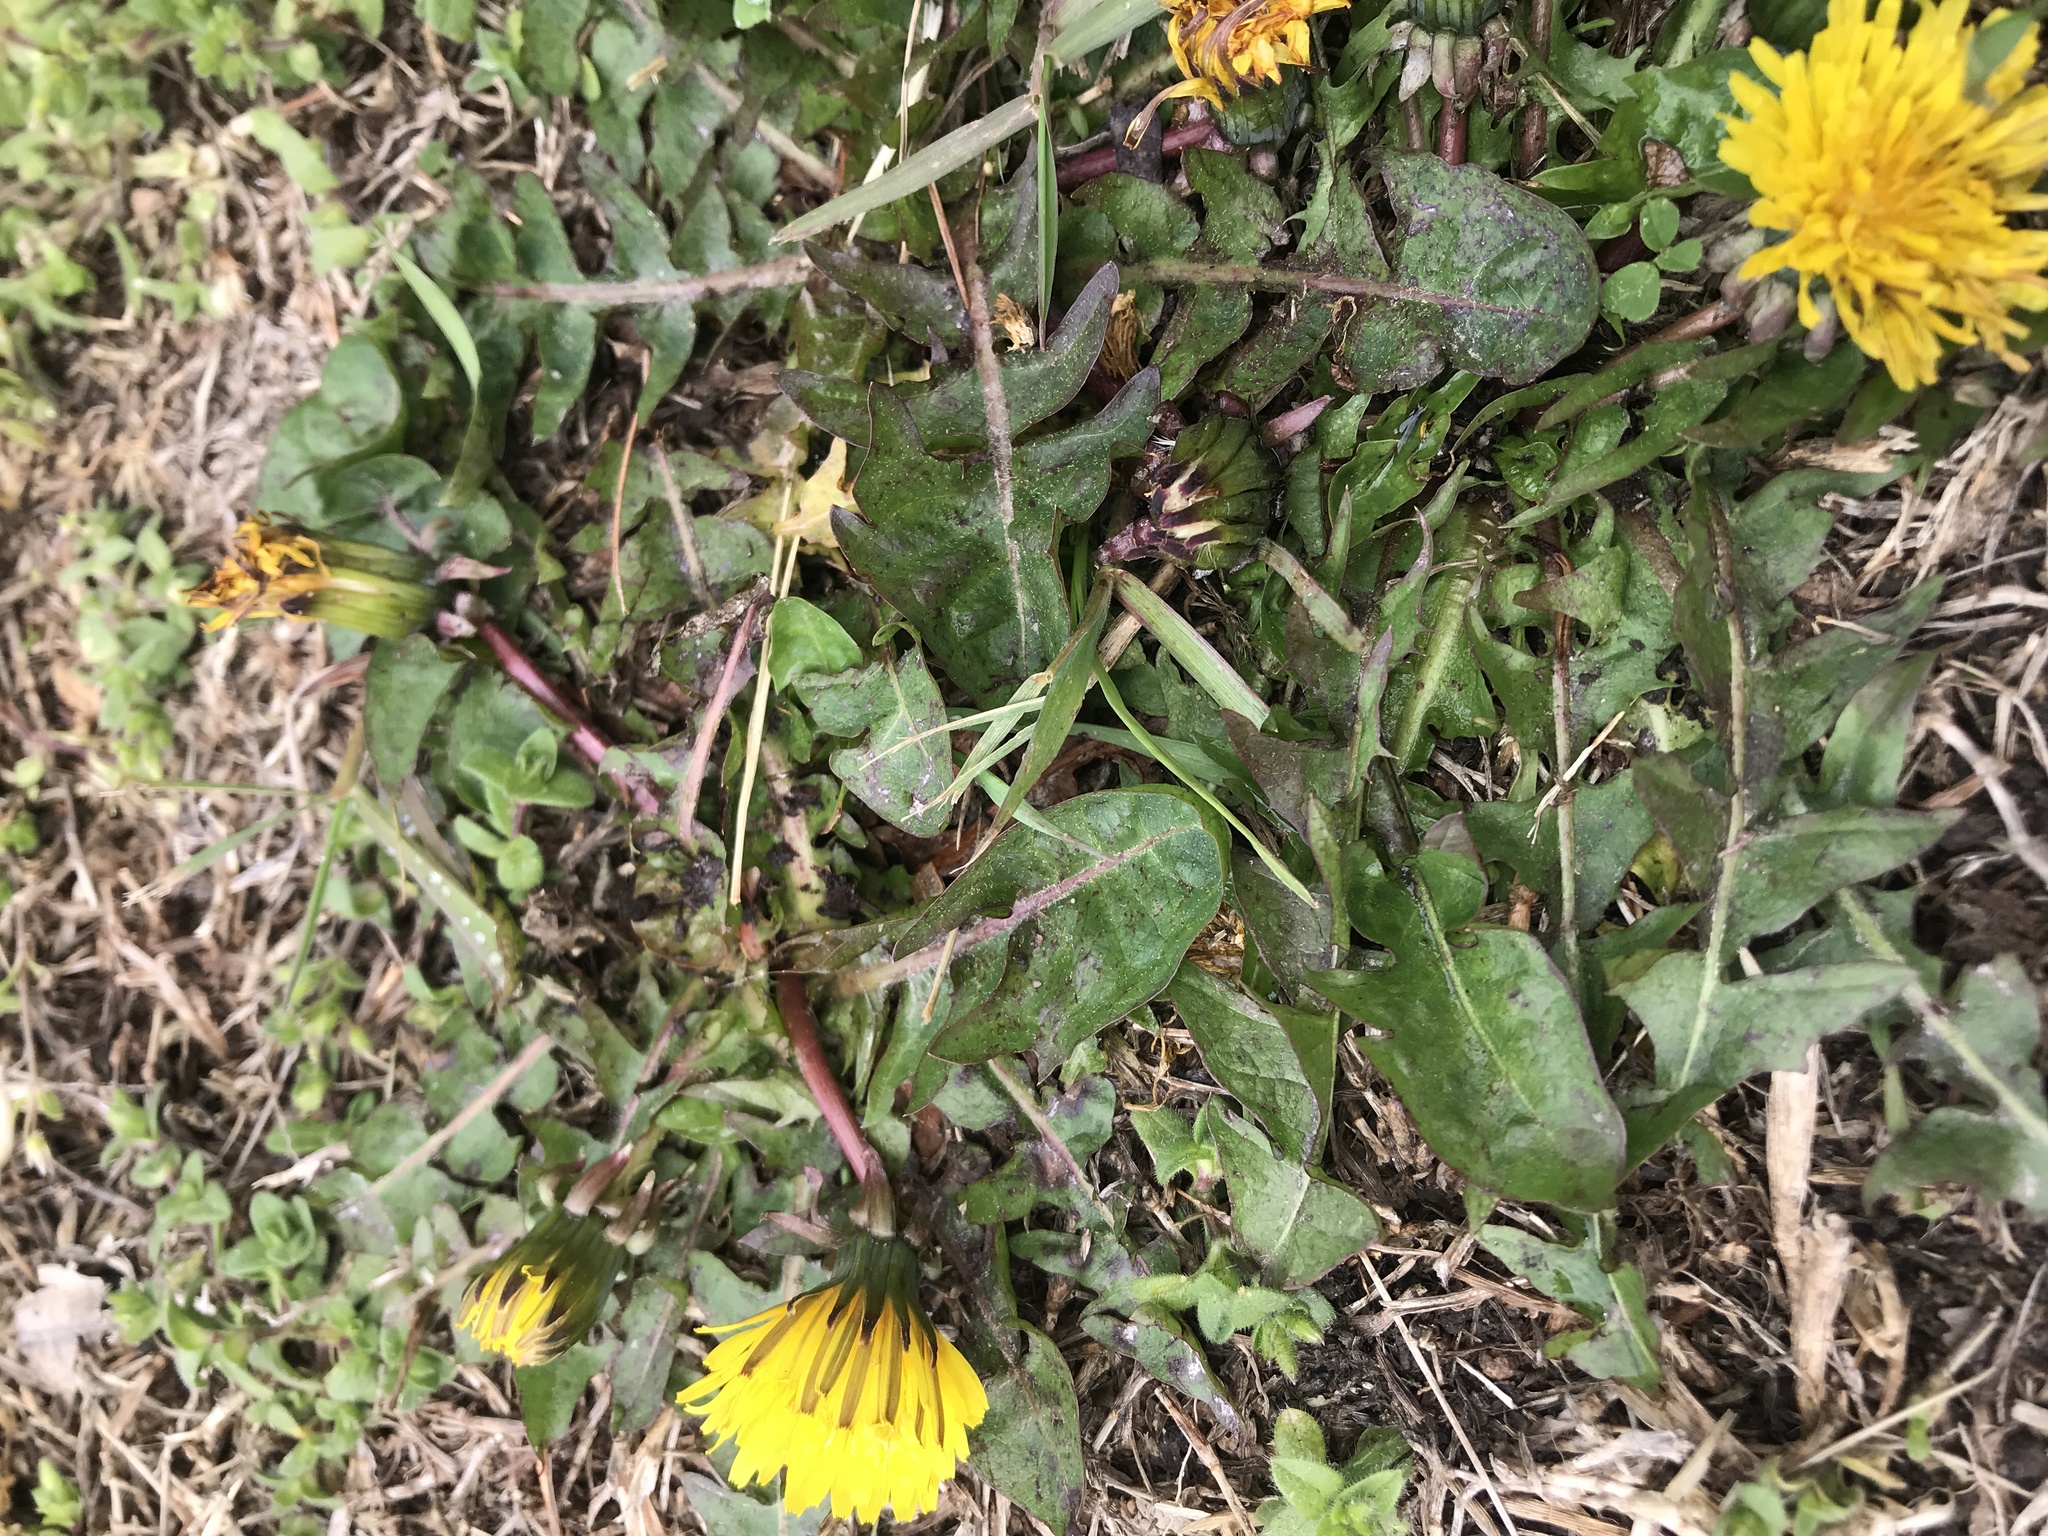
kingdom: Plantae
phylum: Tracheophyta
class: Magnoliopsida
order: Asterales
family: Asteraceae
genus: Taraxacum
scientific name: Taraxacum officinale
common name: Common dandelion
